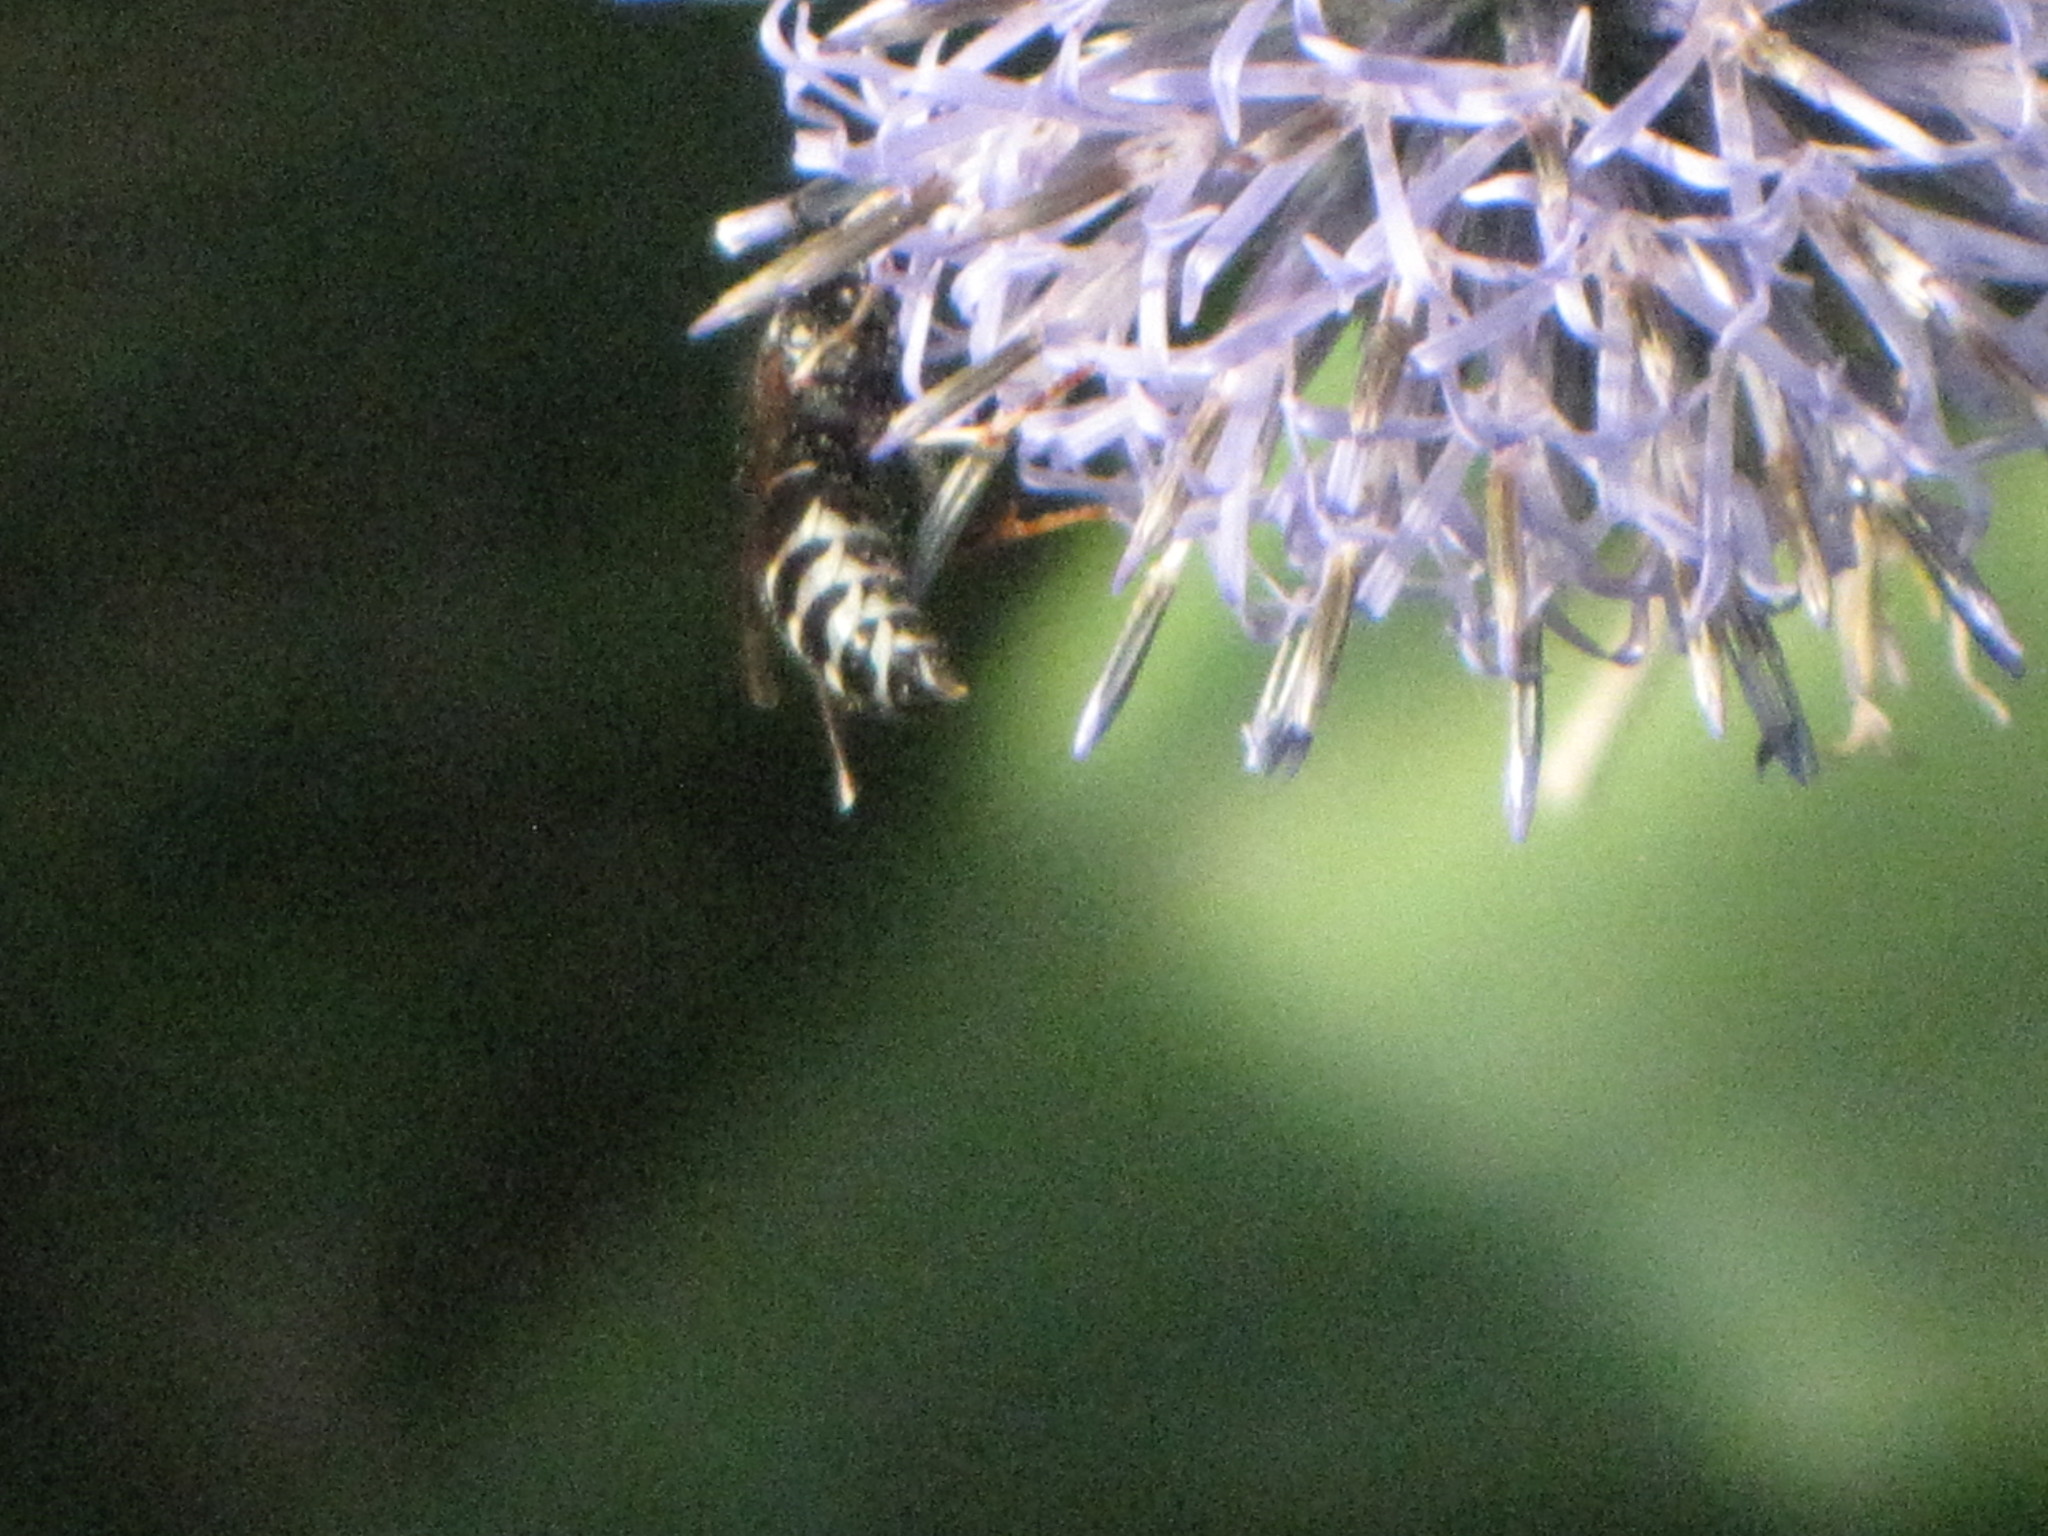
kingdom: Animalia
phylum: Arthropoda
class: Insecta
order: Hymenoptera
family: Vespidae
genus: Vespula
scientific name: Vespula consobrina
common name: Blackjacket
